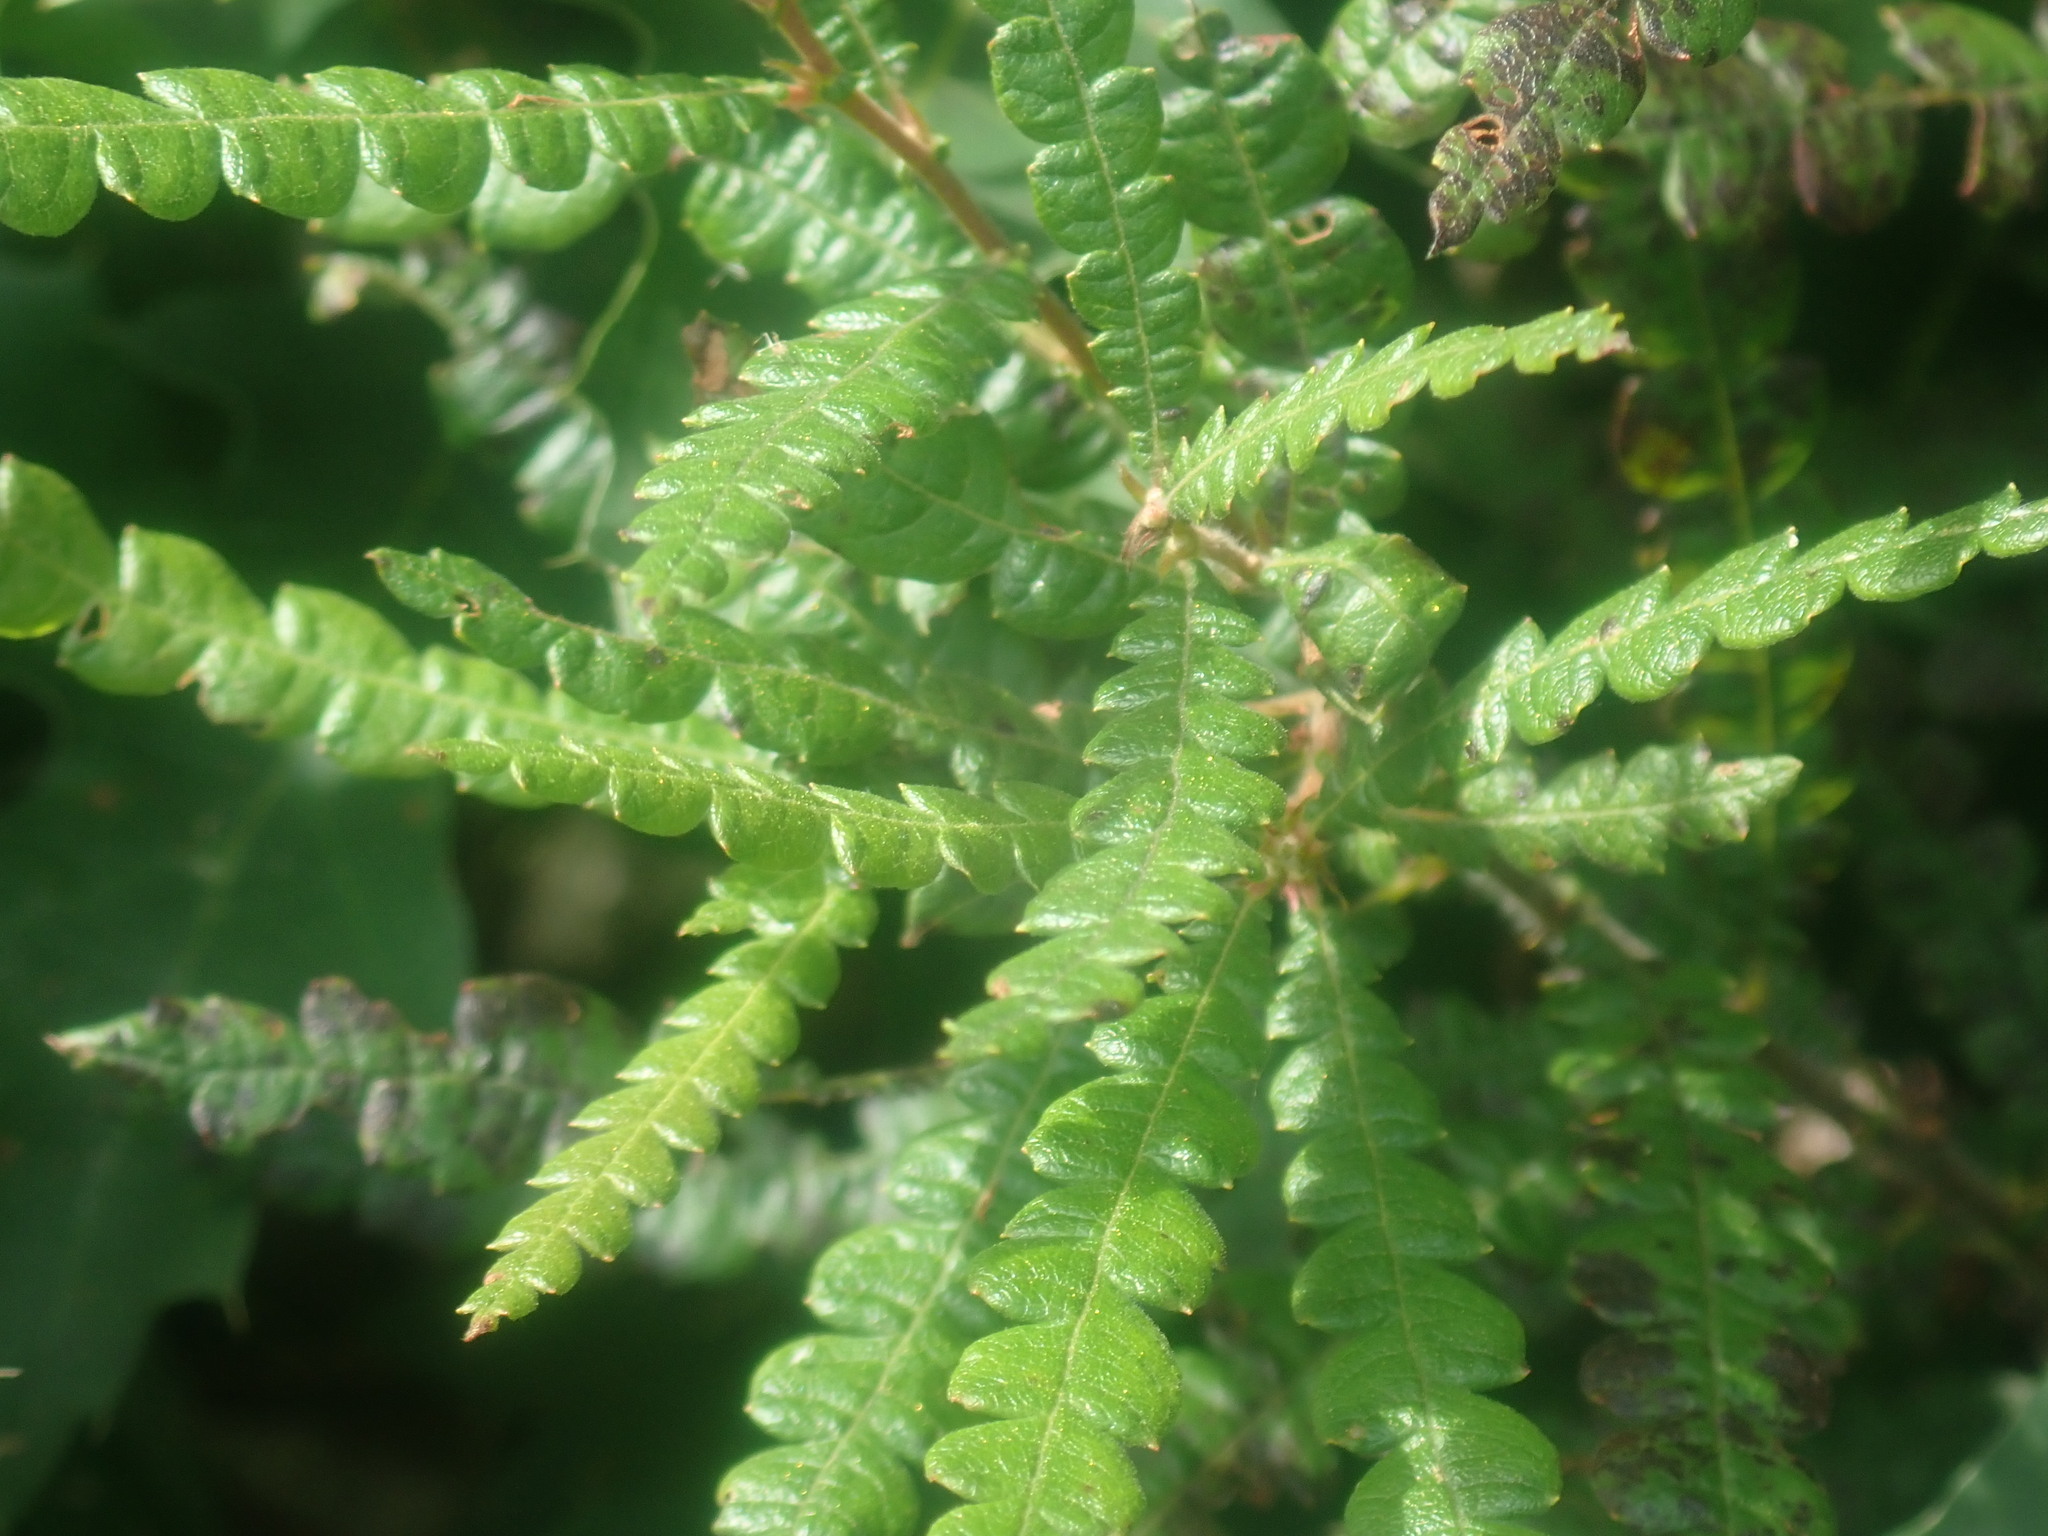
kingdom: Plantae
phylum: Tracheophyta
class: Magnoliopsida
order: Fagales
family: Myricaceae
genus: Comptonia
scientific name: Comptonia peregrina
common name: Sweet-fern
